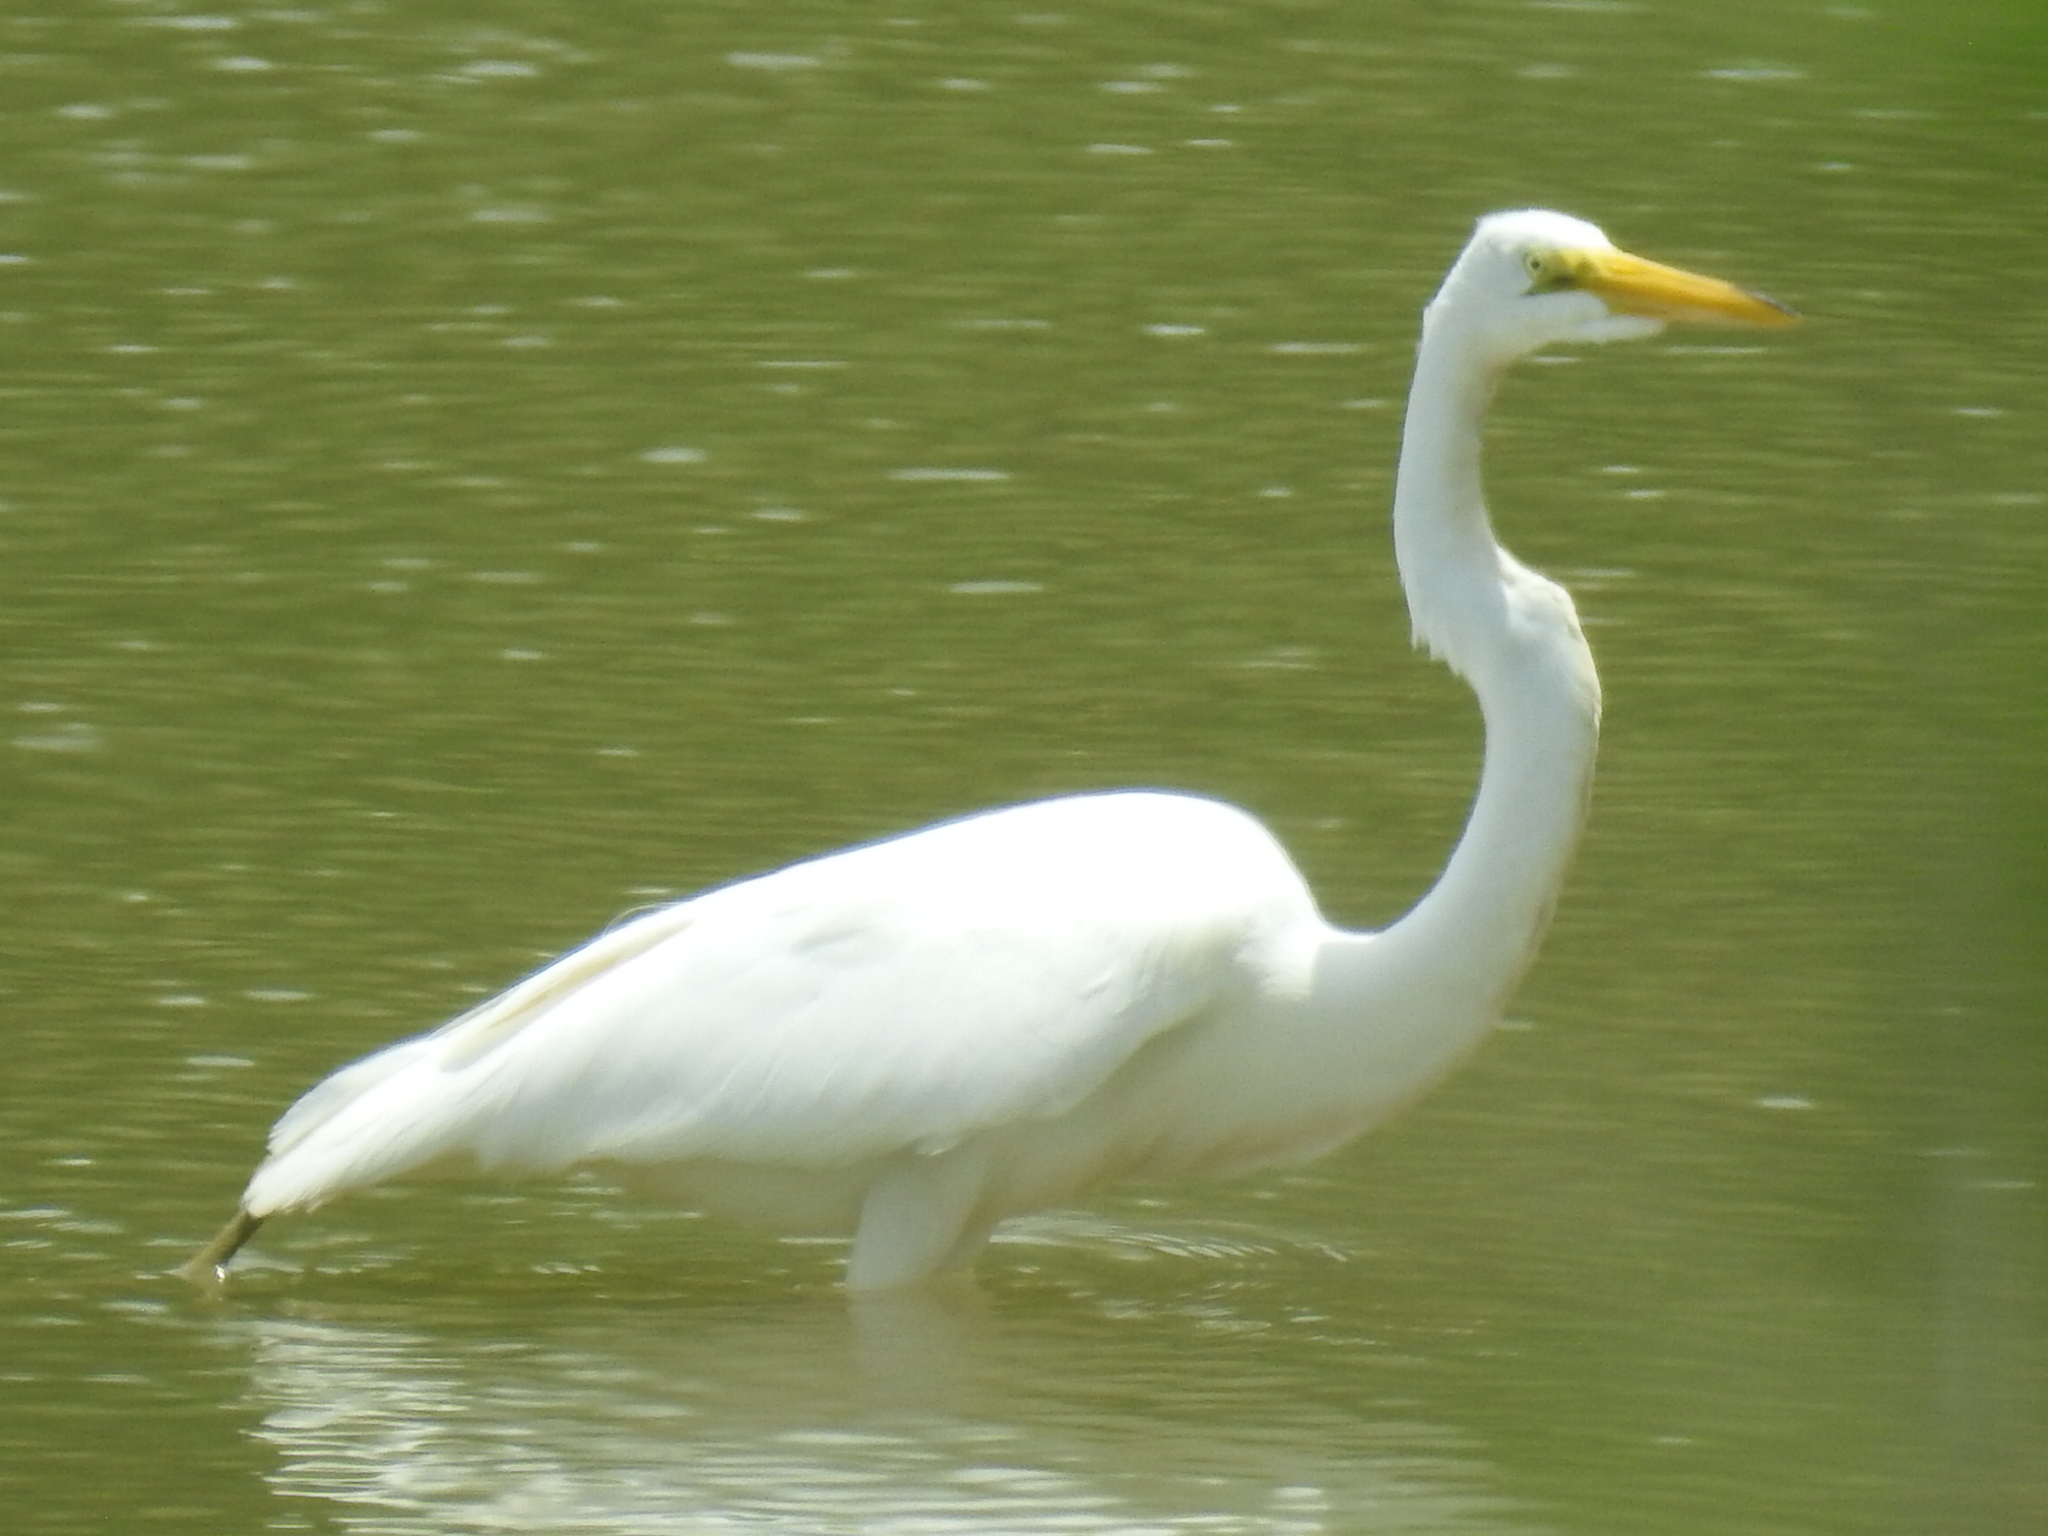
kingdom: Animalia
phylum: Chordata
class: Aves
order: Pelecaniformes
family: Ardeidae
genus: Ardea
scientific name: Ardea alba
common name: Great egret
